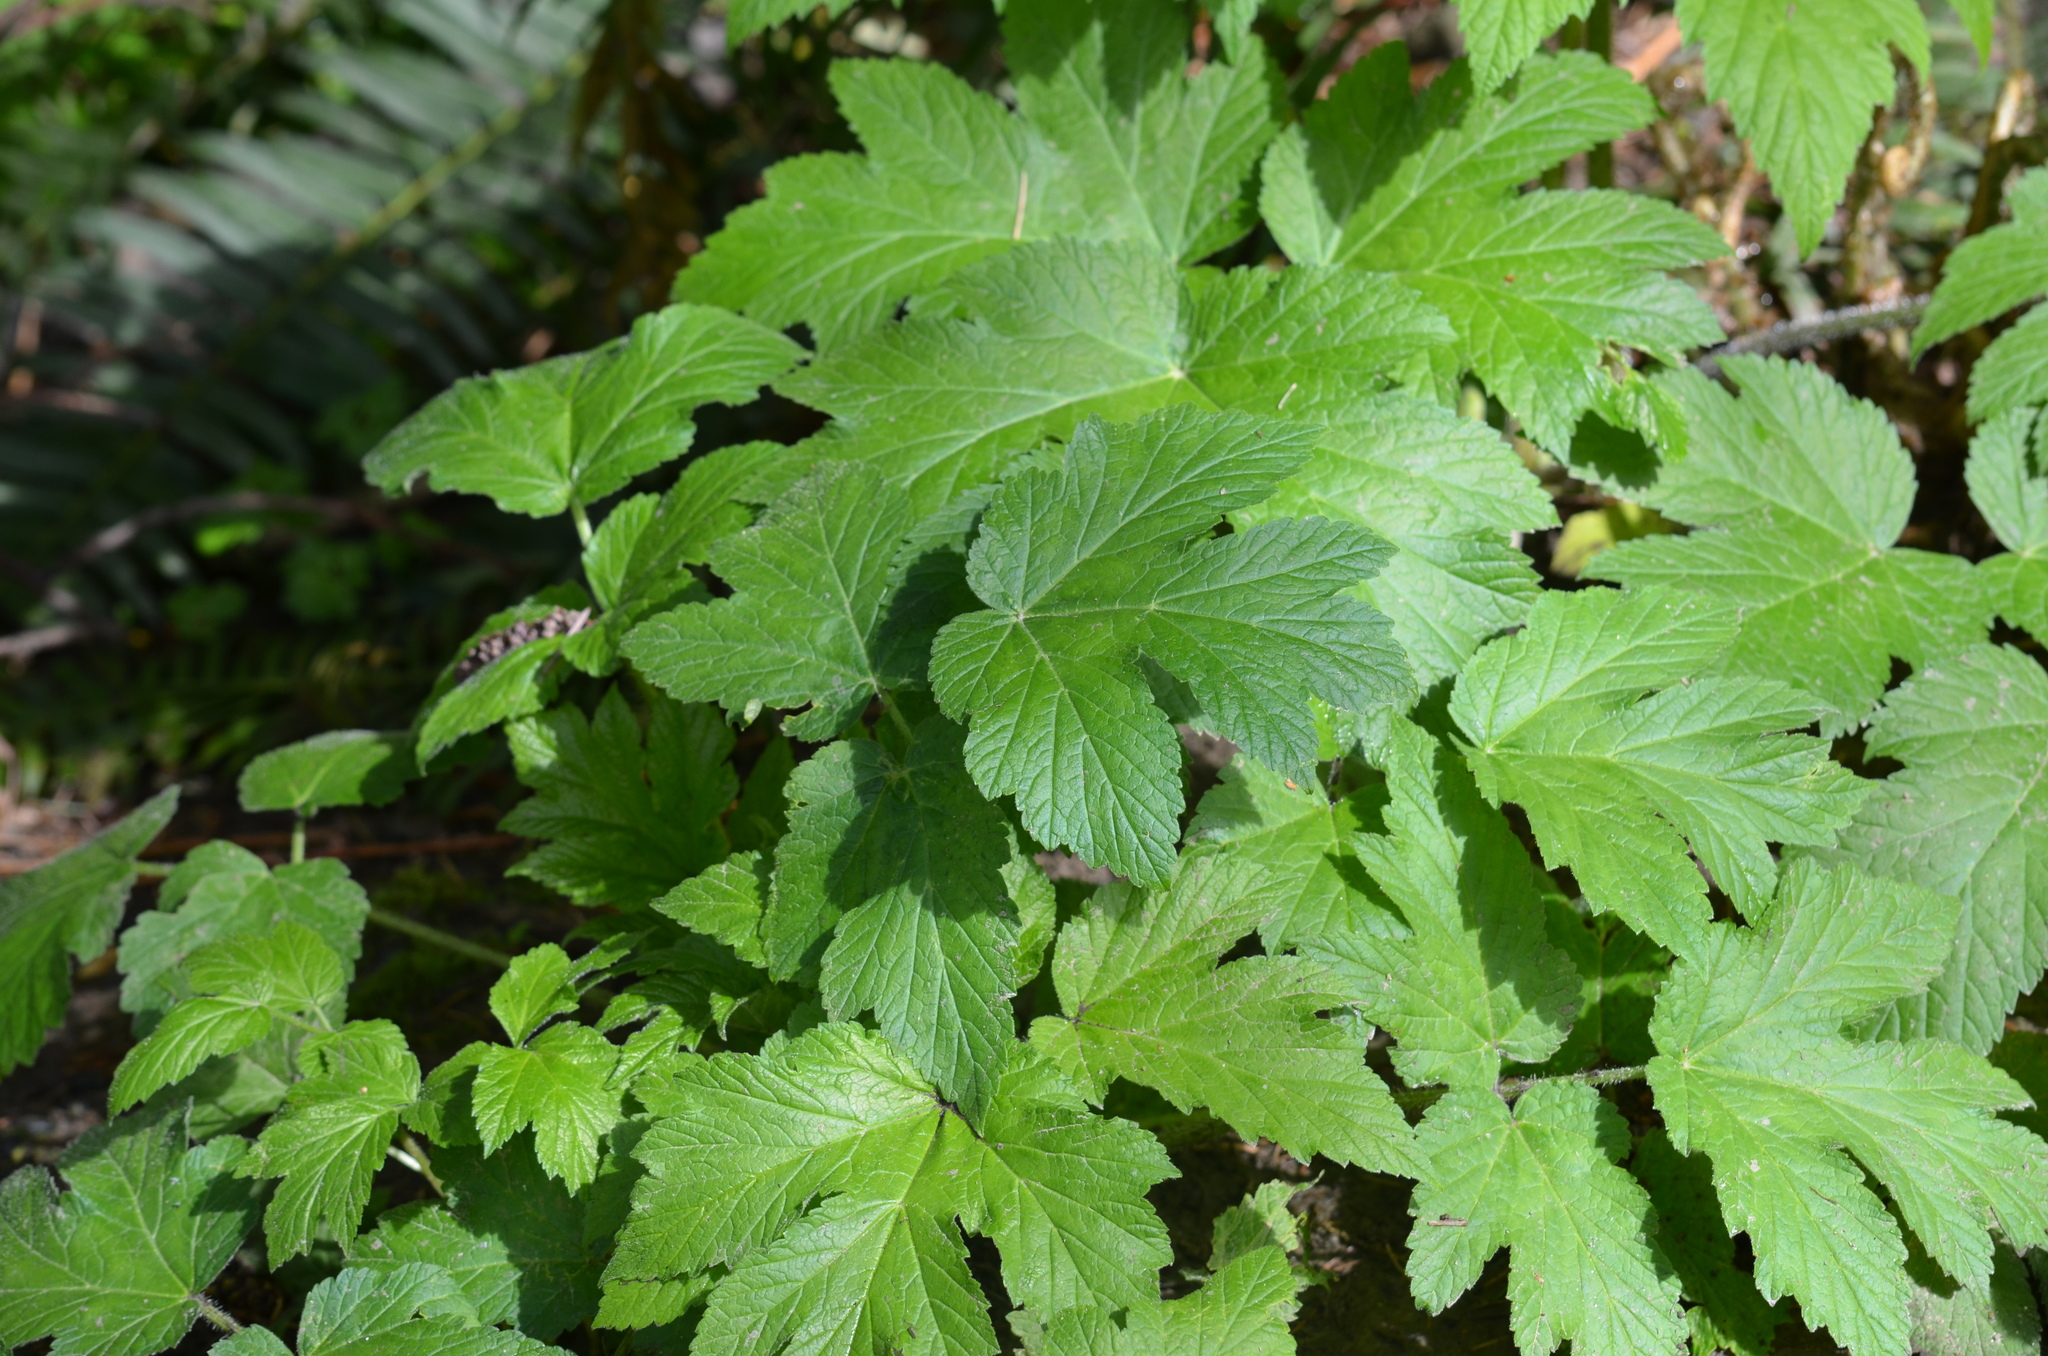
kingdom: Plantae
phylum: Tracheophyta
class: Magnoliopsida
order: Apiales
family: Apiaceae
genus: Heracleum
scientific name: Heracleum maximum
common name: American cow parsnip
